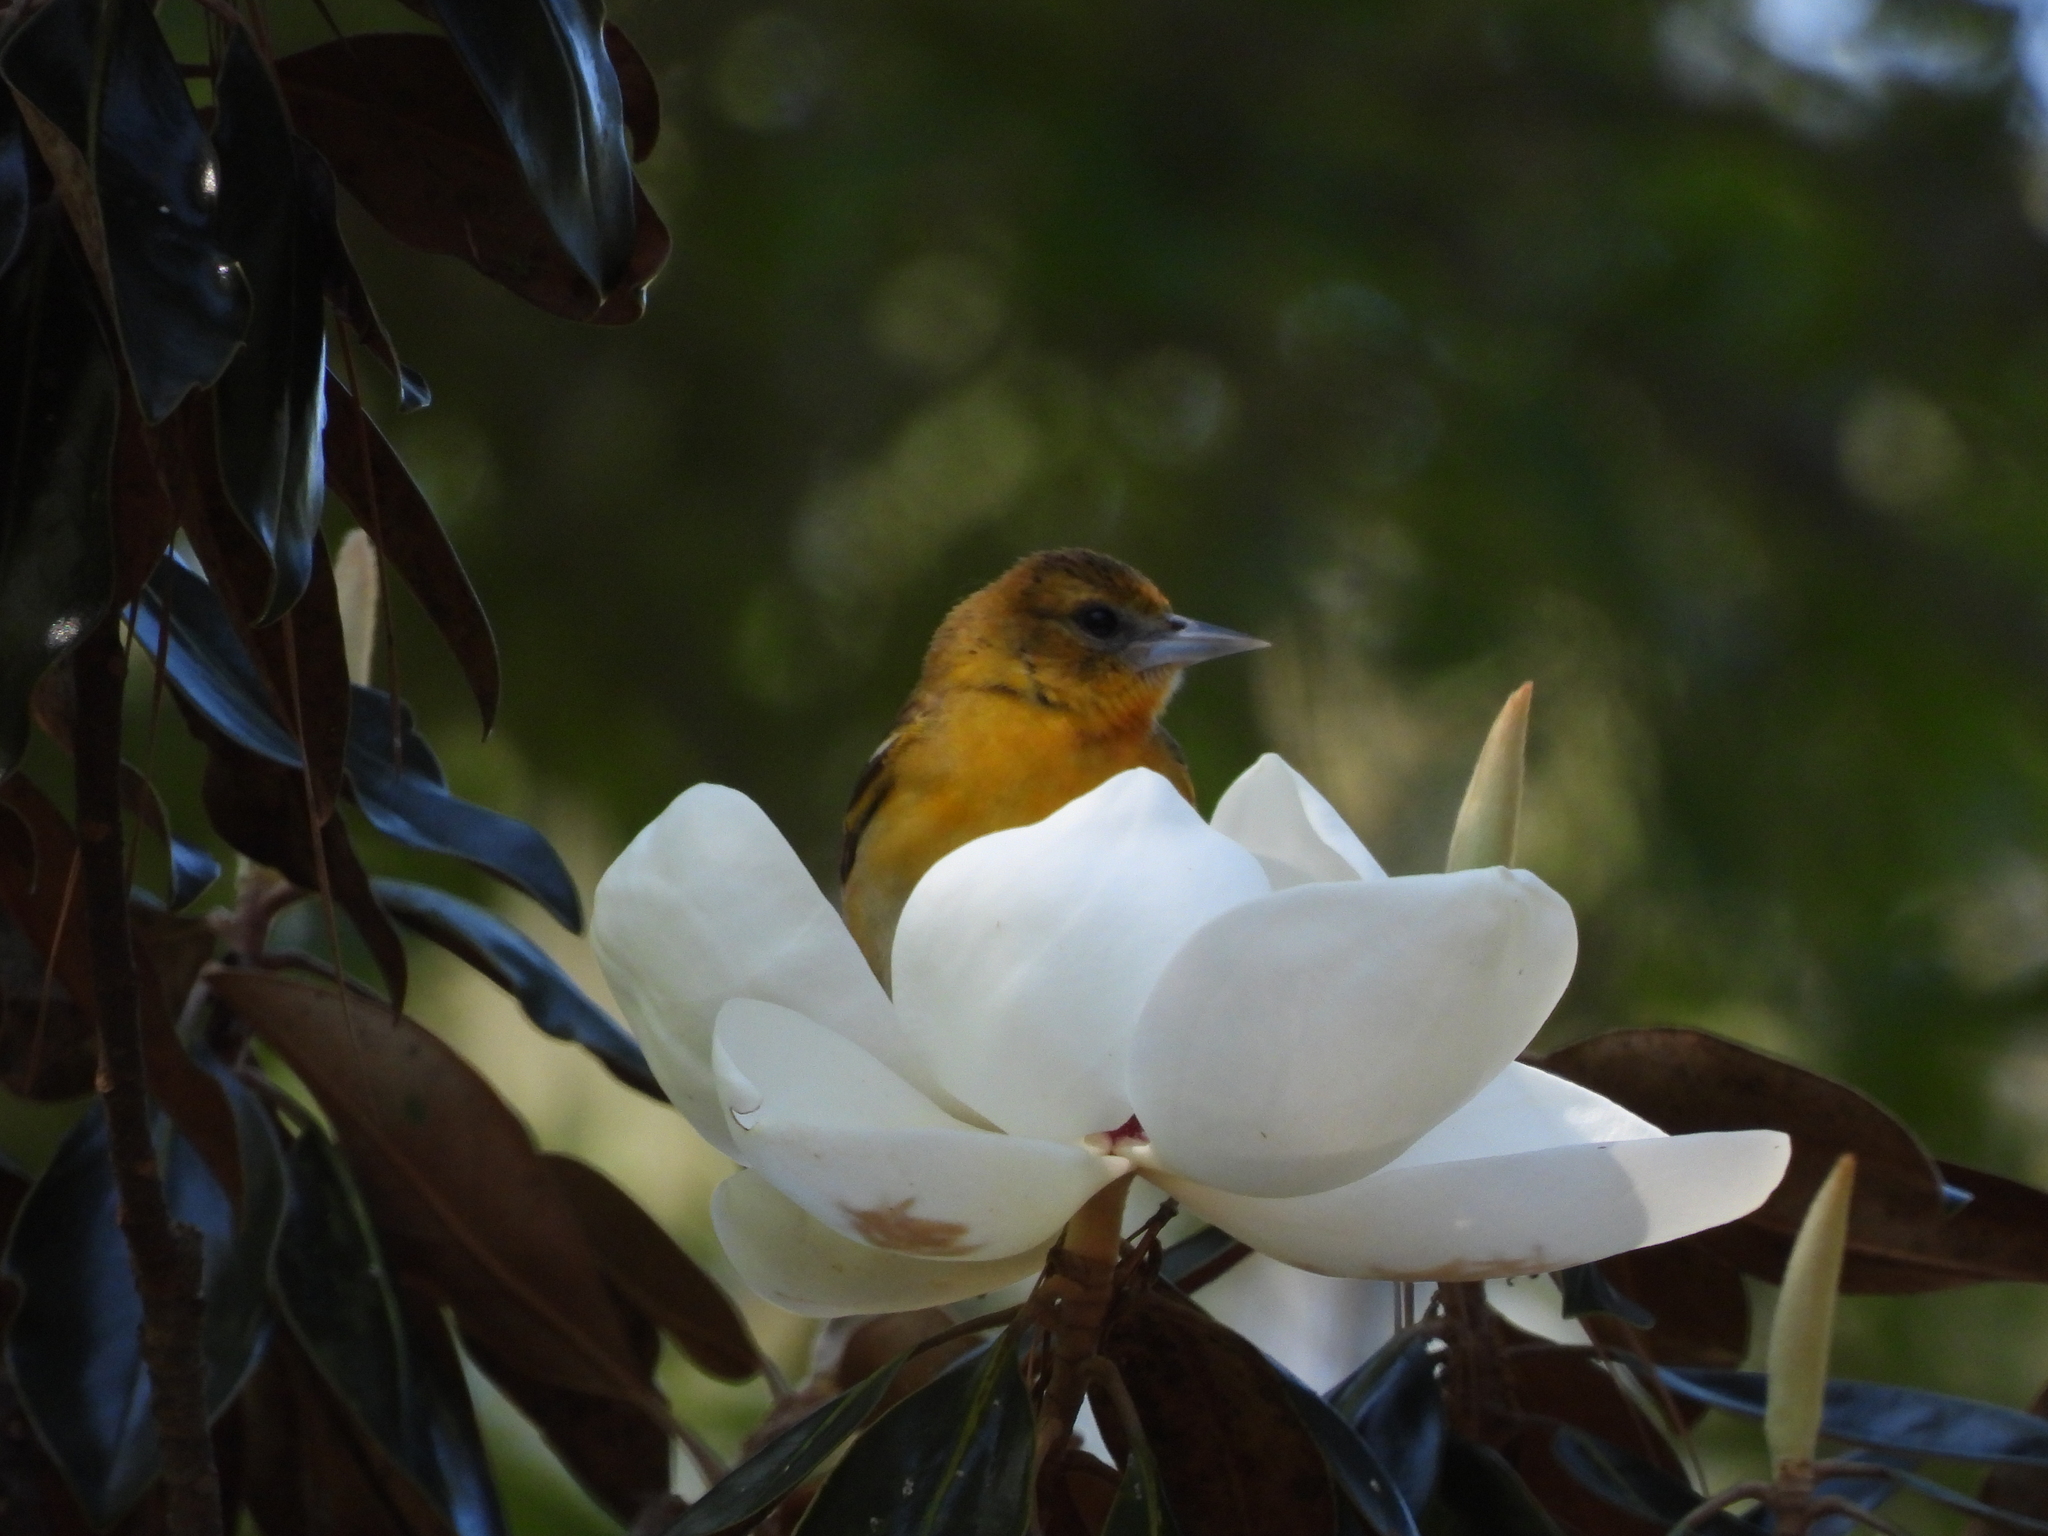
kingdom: Animalia
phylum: Chordata
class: Aves
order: Passeriformes
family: Icteridae
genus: Icterus
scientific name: Icterus galbula
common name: Baltimore oriole
